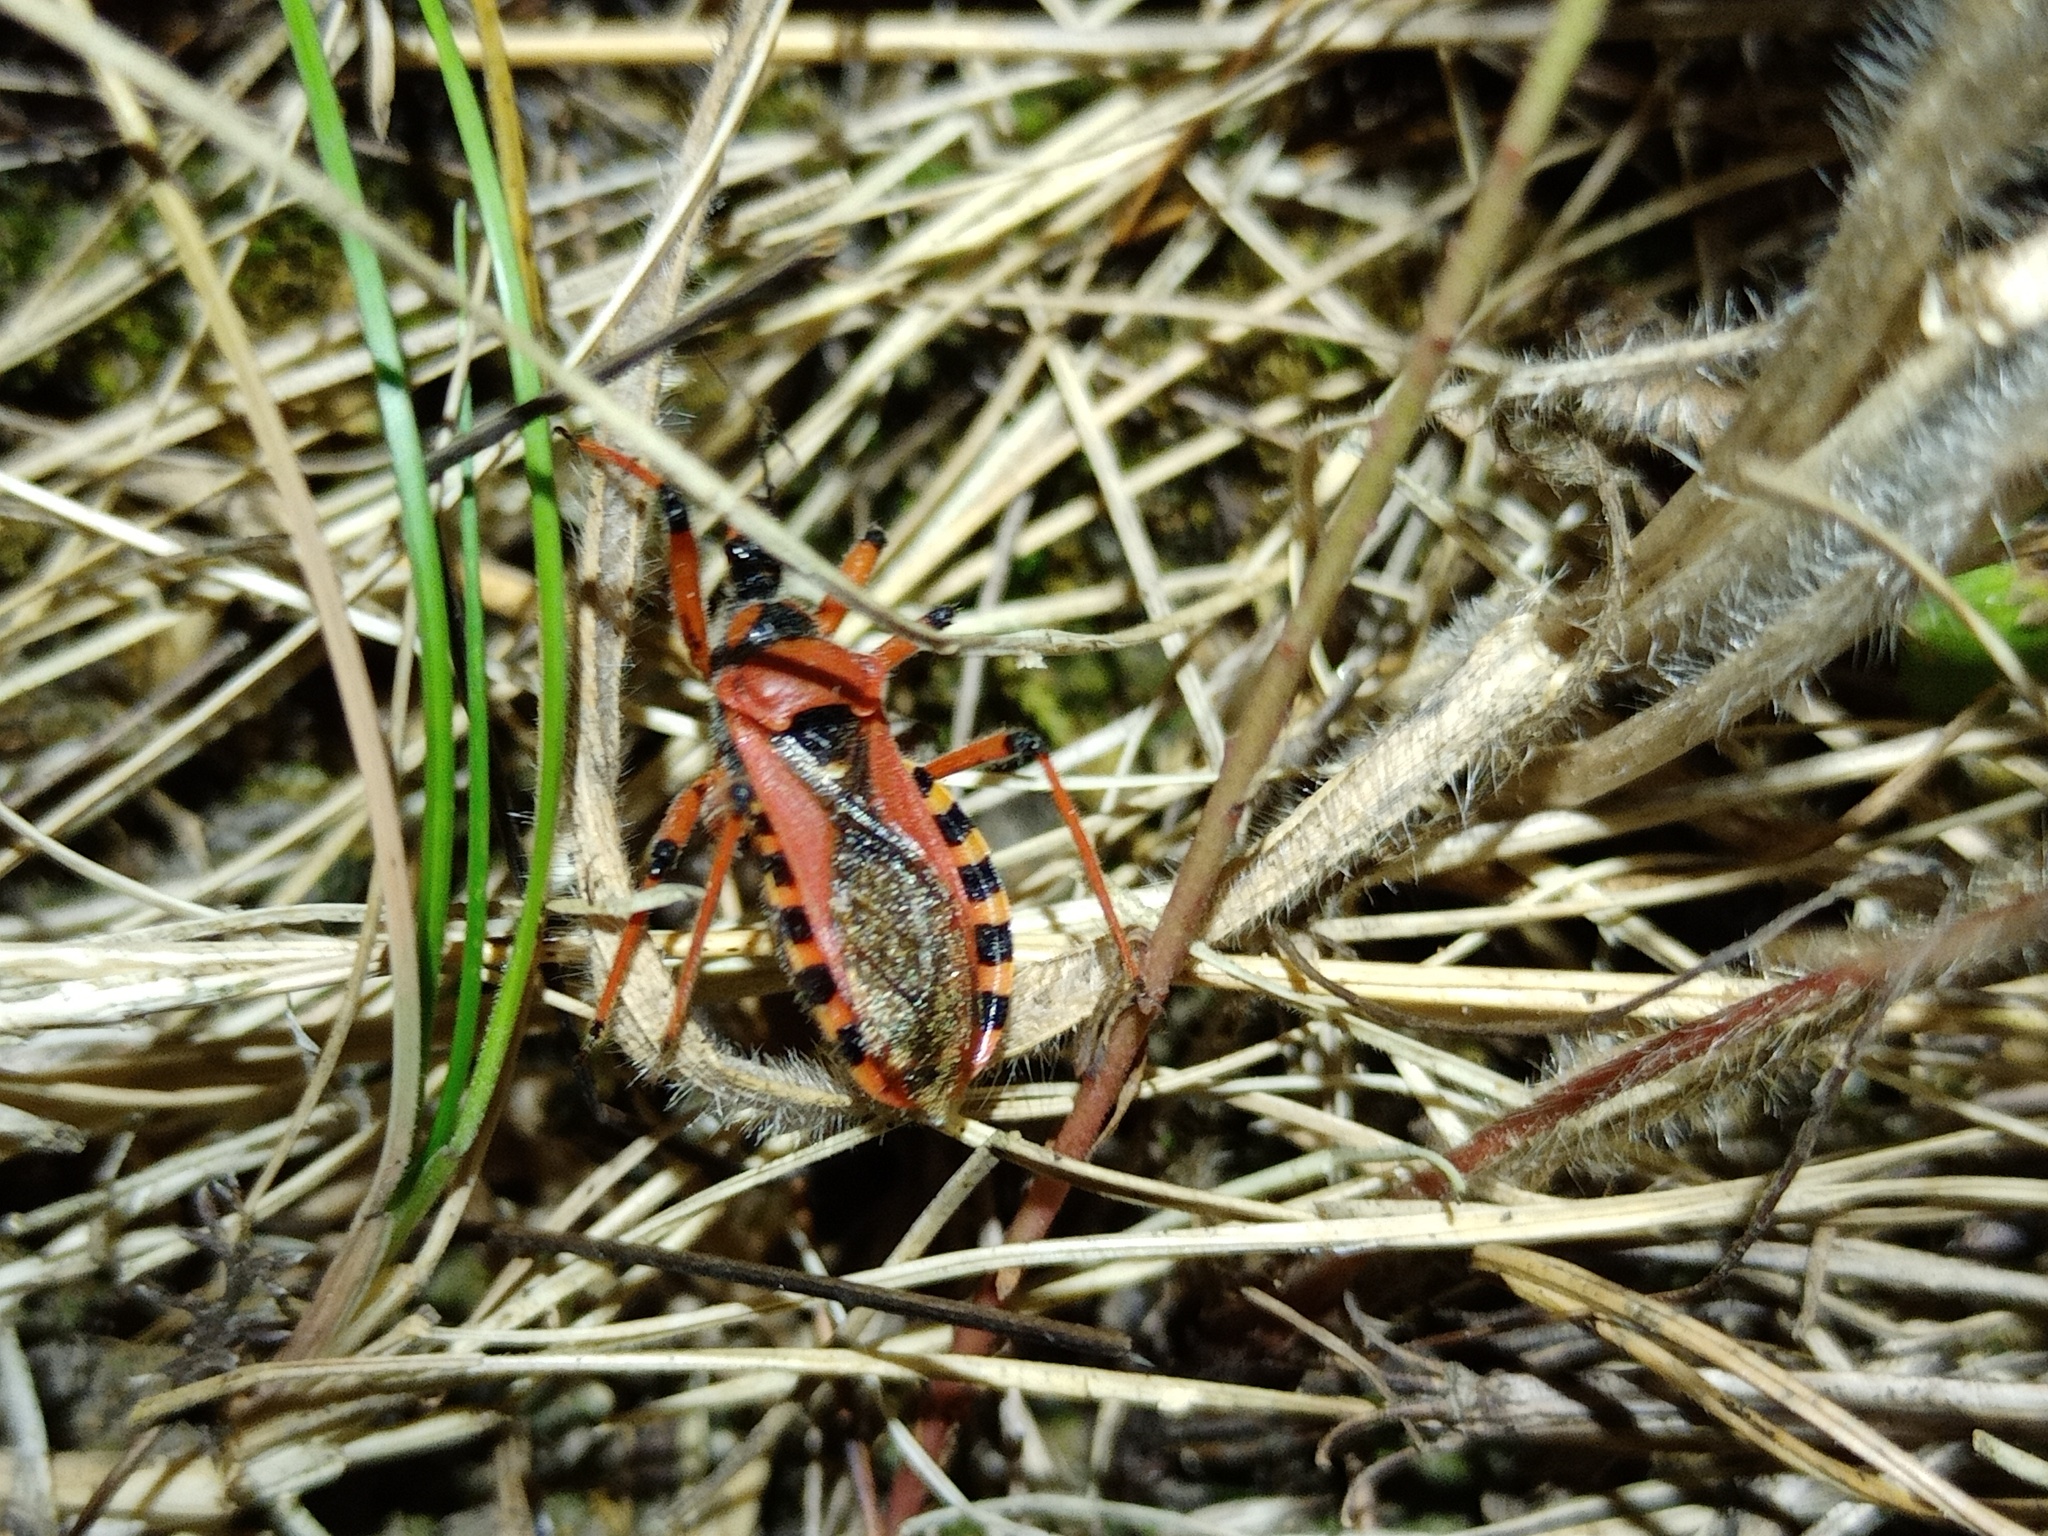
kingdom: Animalia
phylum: Arthropoda
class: Insecta
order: Hemiptera
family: Reduviidae
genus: Rhynocoris
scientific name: Rhynocoris iracundus
